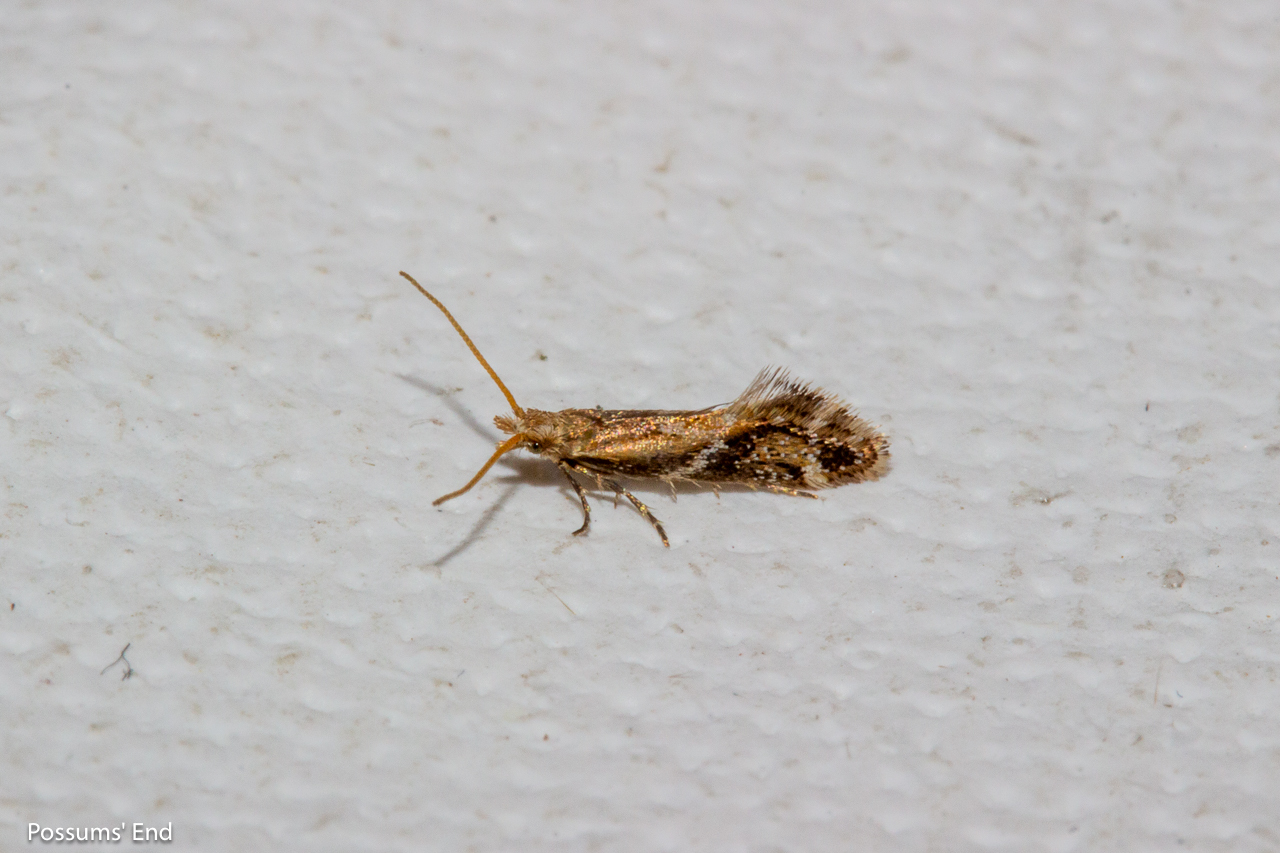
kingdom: Animalia
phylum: Arthropoda
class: Insecta
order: Lepidoptera
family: Mnesarchaeidae
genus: Mnesarchaea
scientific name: Mnesarchaea paracosma
